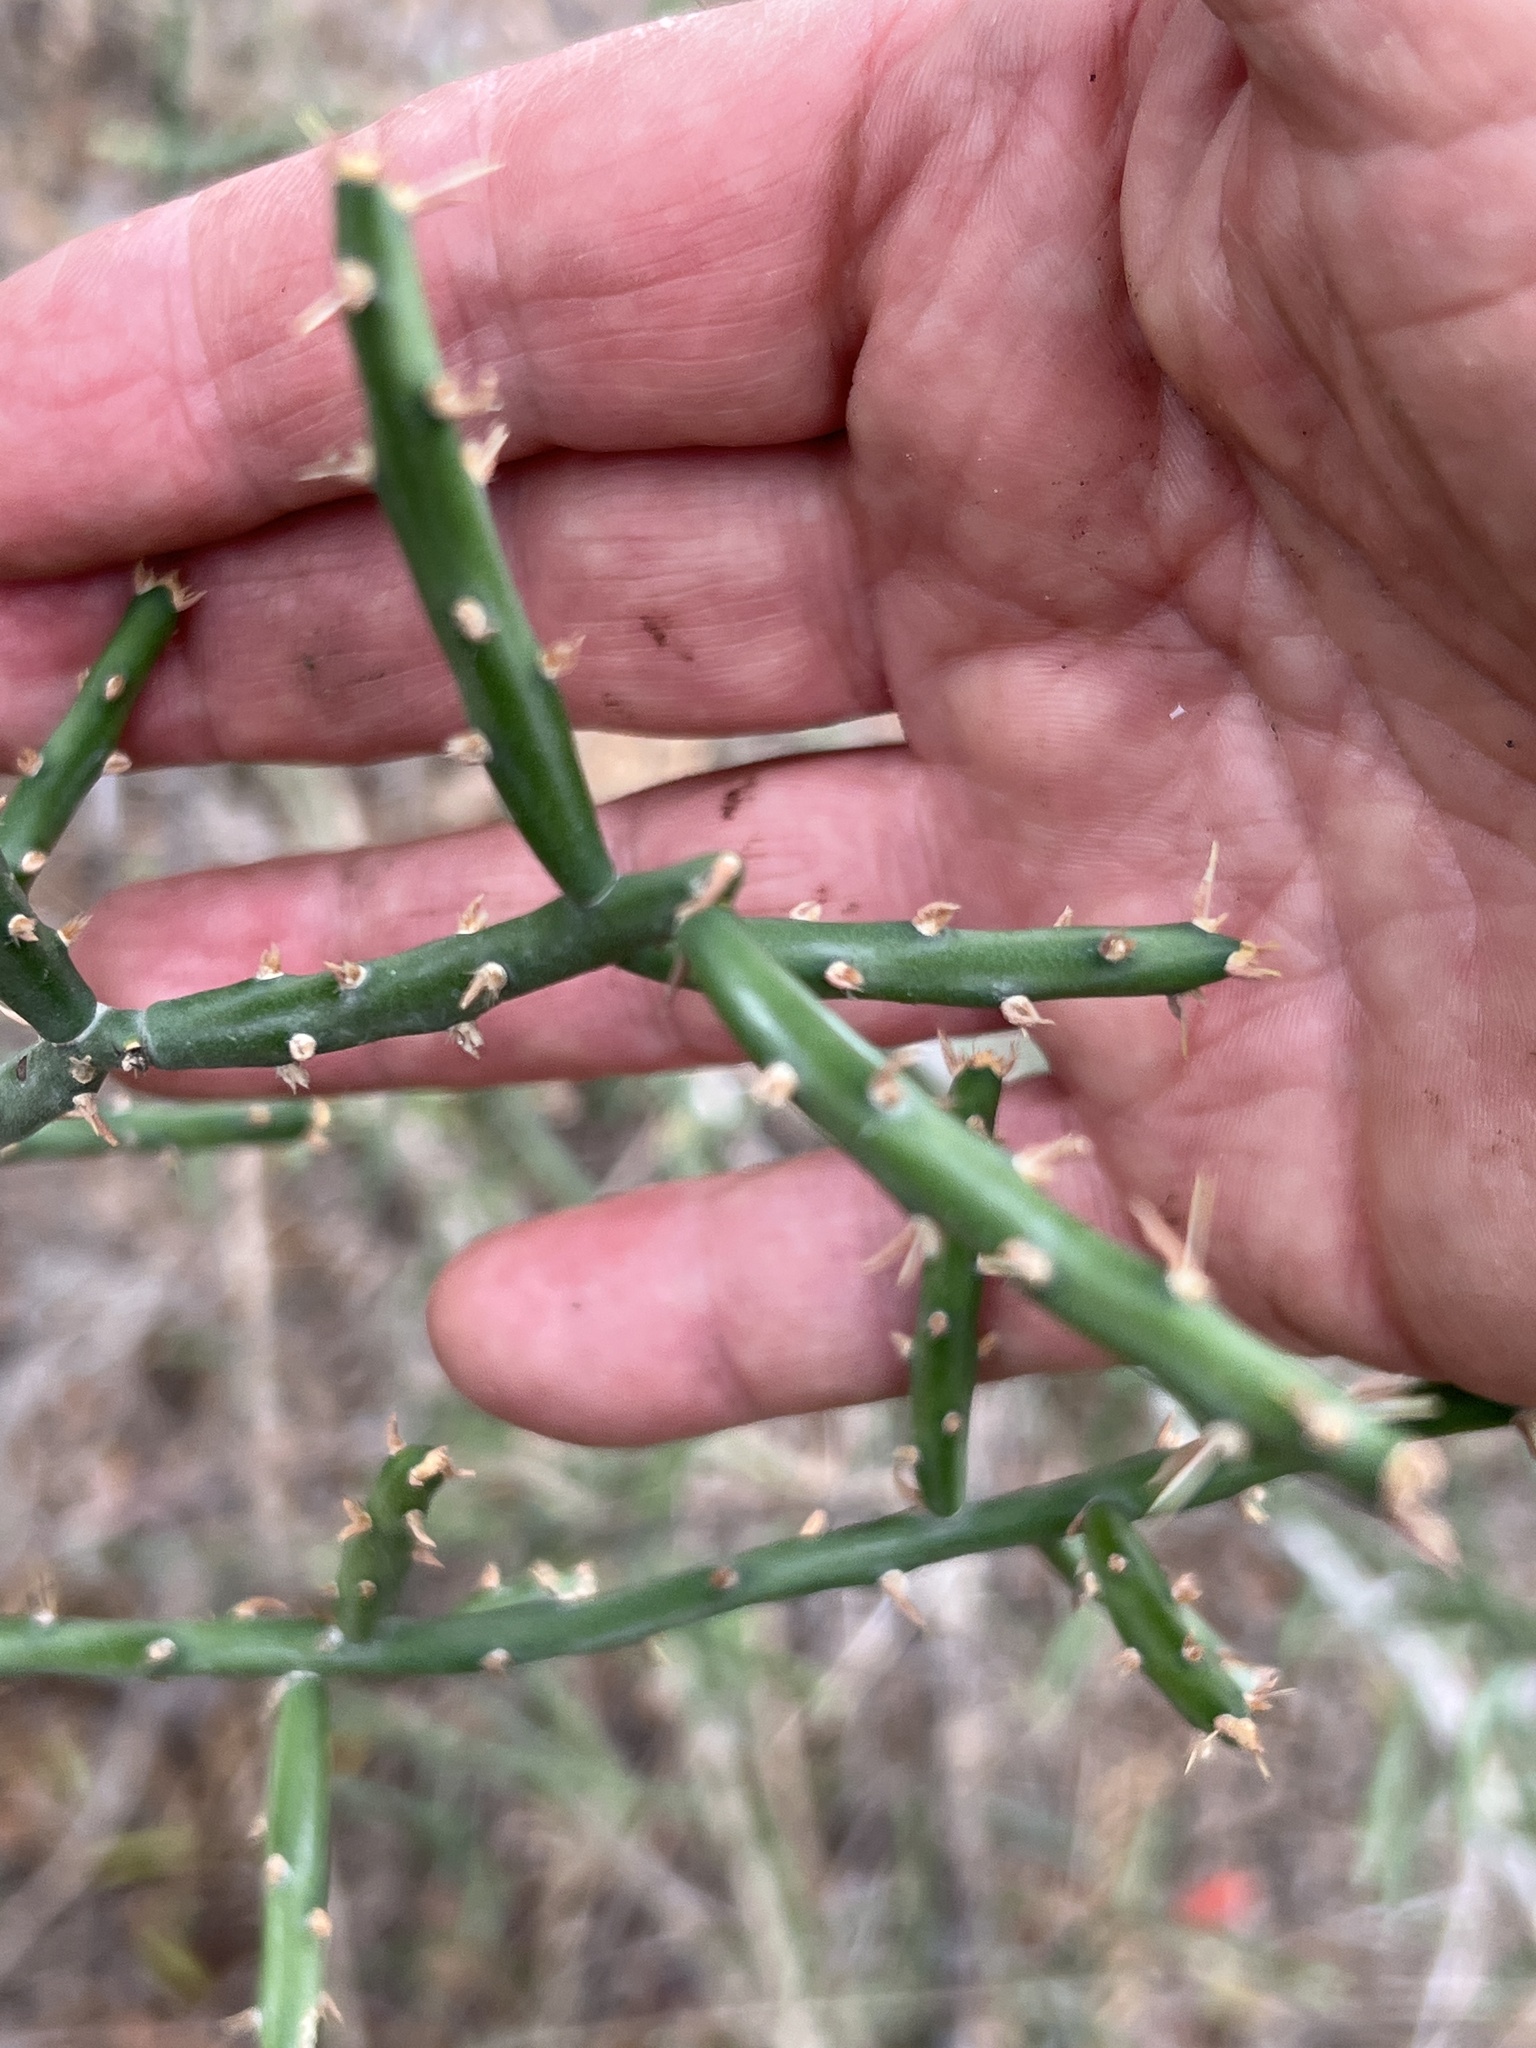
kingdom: Plantae
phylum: Tracheophyta
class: Magnoliopsida
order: Caryophyllales
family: Cactaceae
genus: Cylindropuntia
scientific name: Cylindropuntia leptocaulis
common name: Christmas cactus
